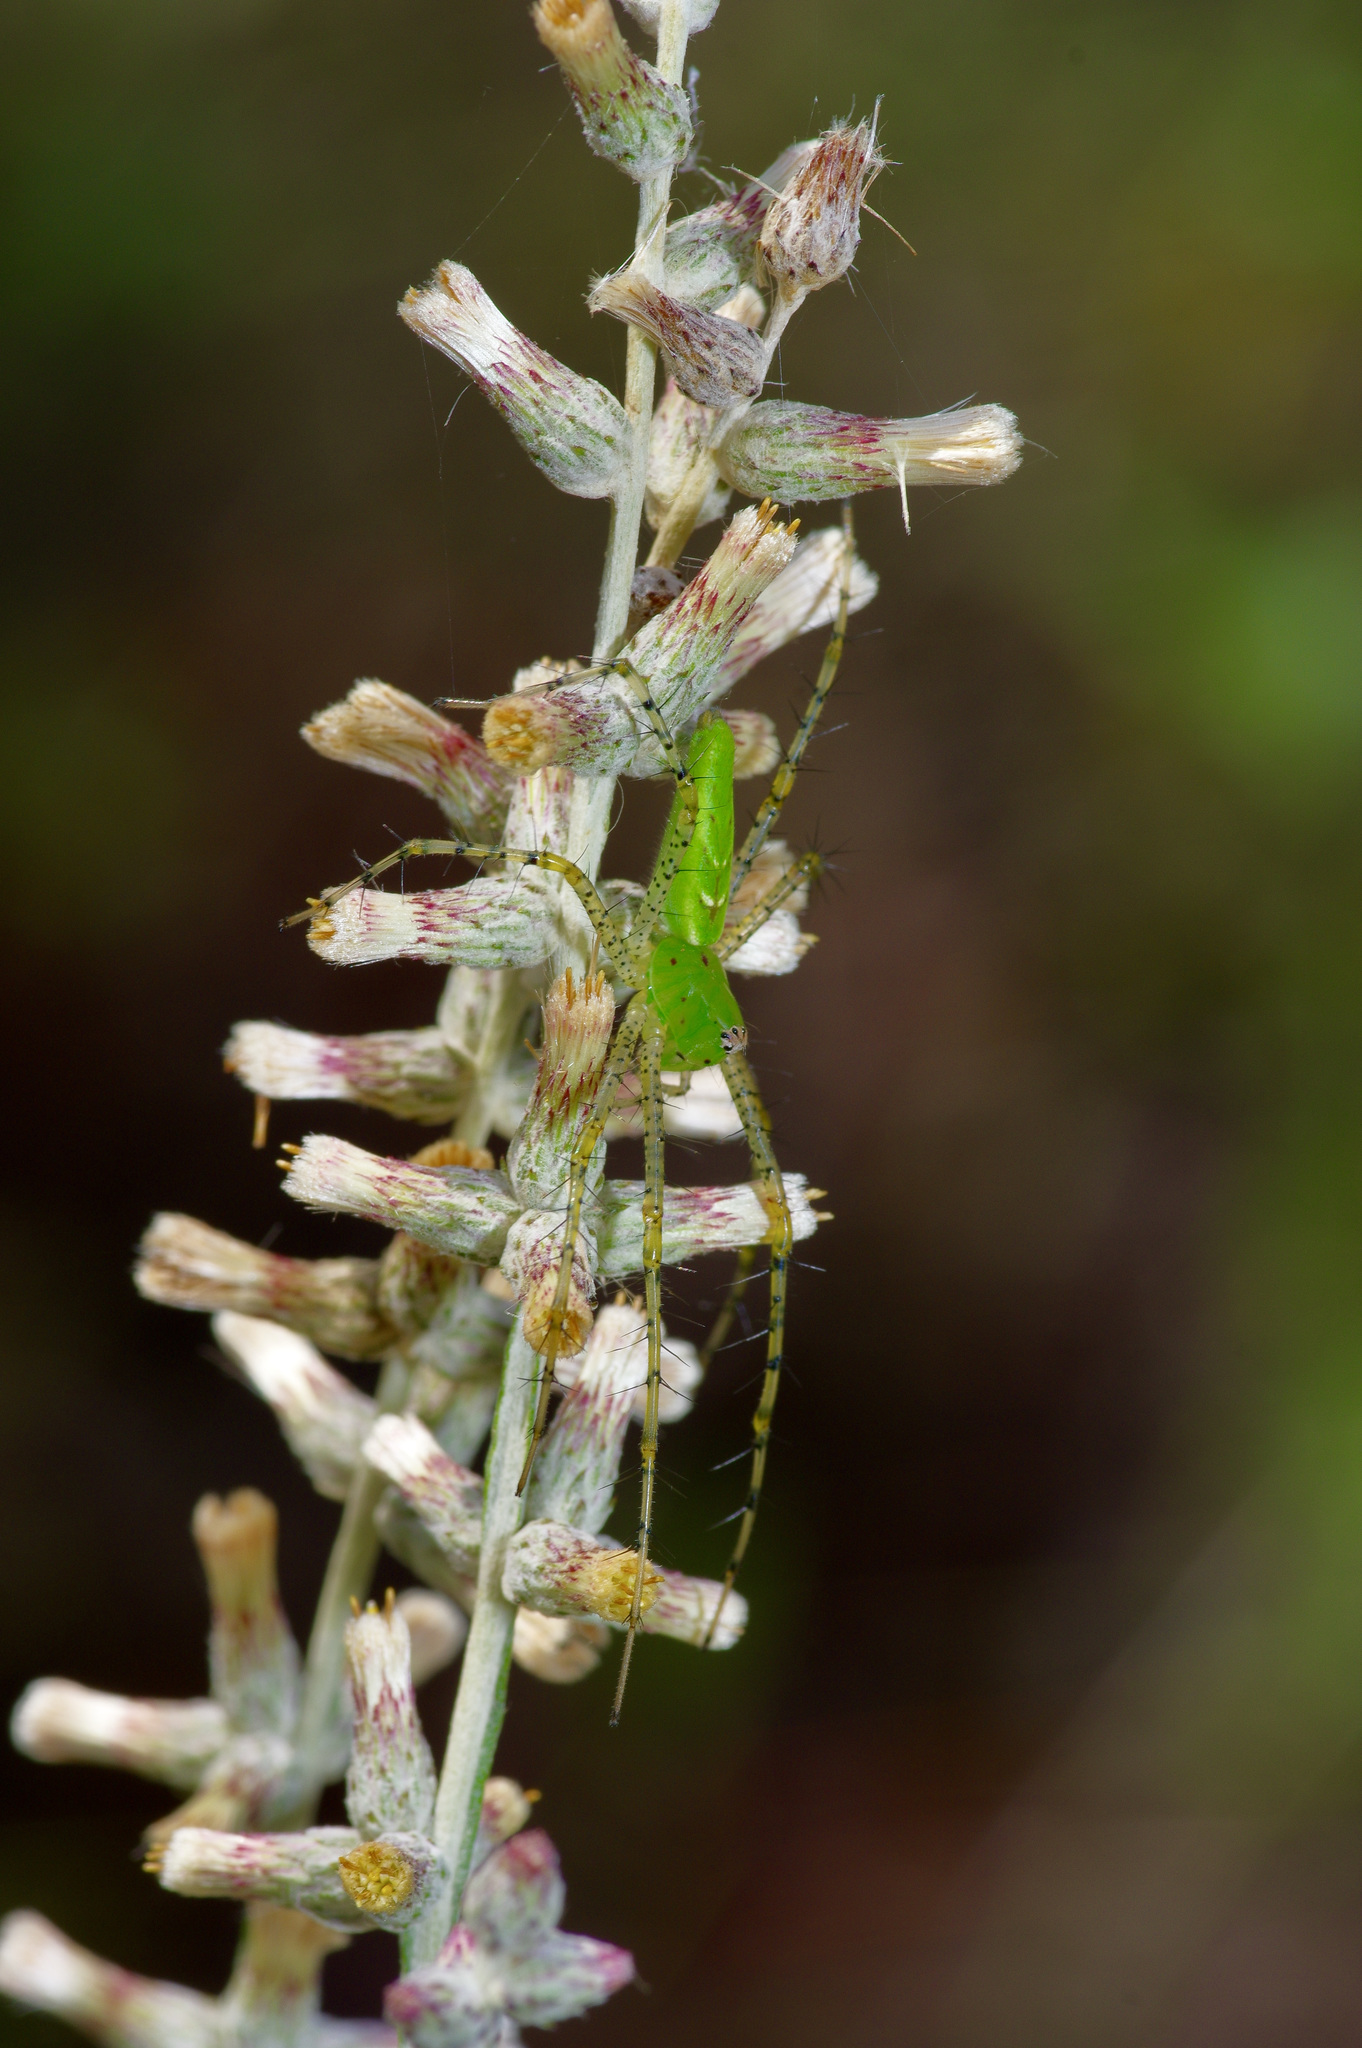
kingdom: Animalia
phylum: Arthropoda
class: Arachnida
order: Araneae
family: Oxyopidae
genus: Peucetia
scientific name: Peucetia viridans
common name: Lynx spiders
